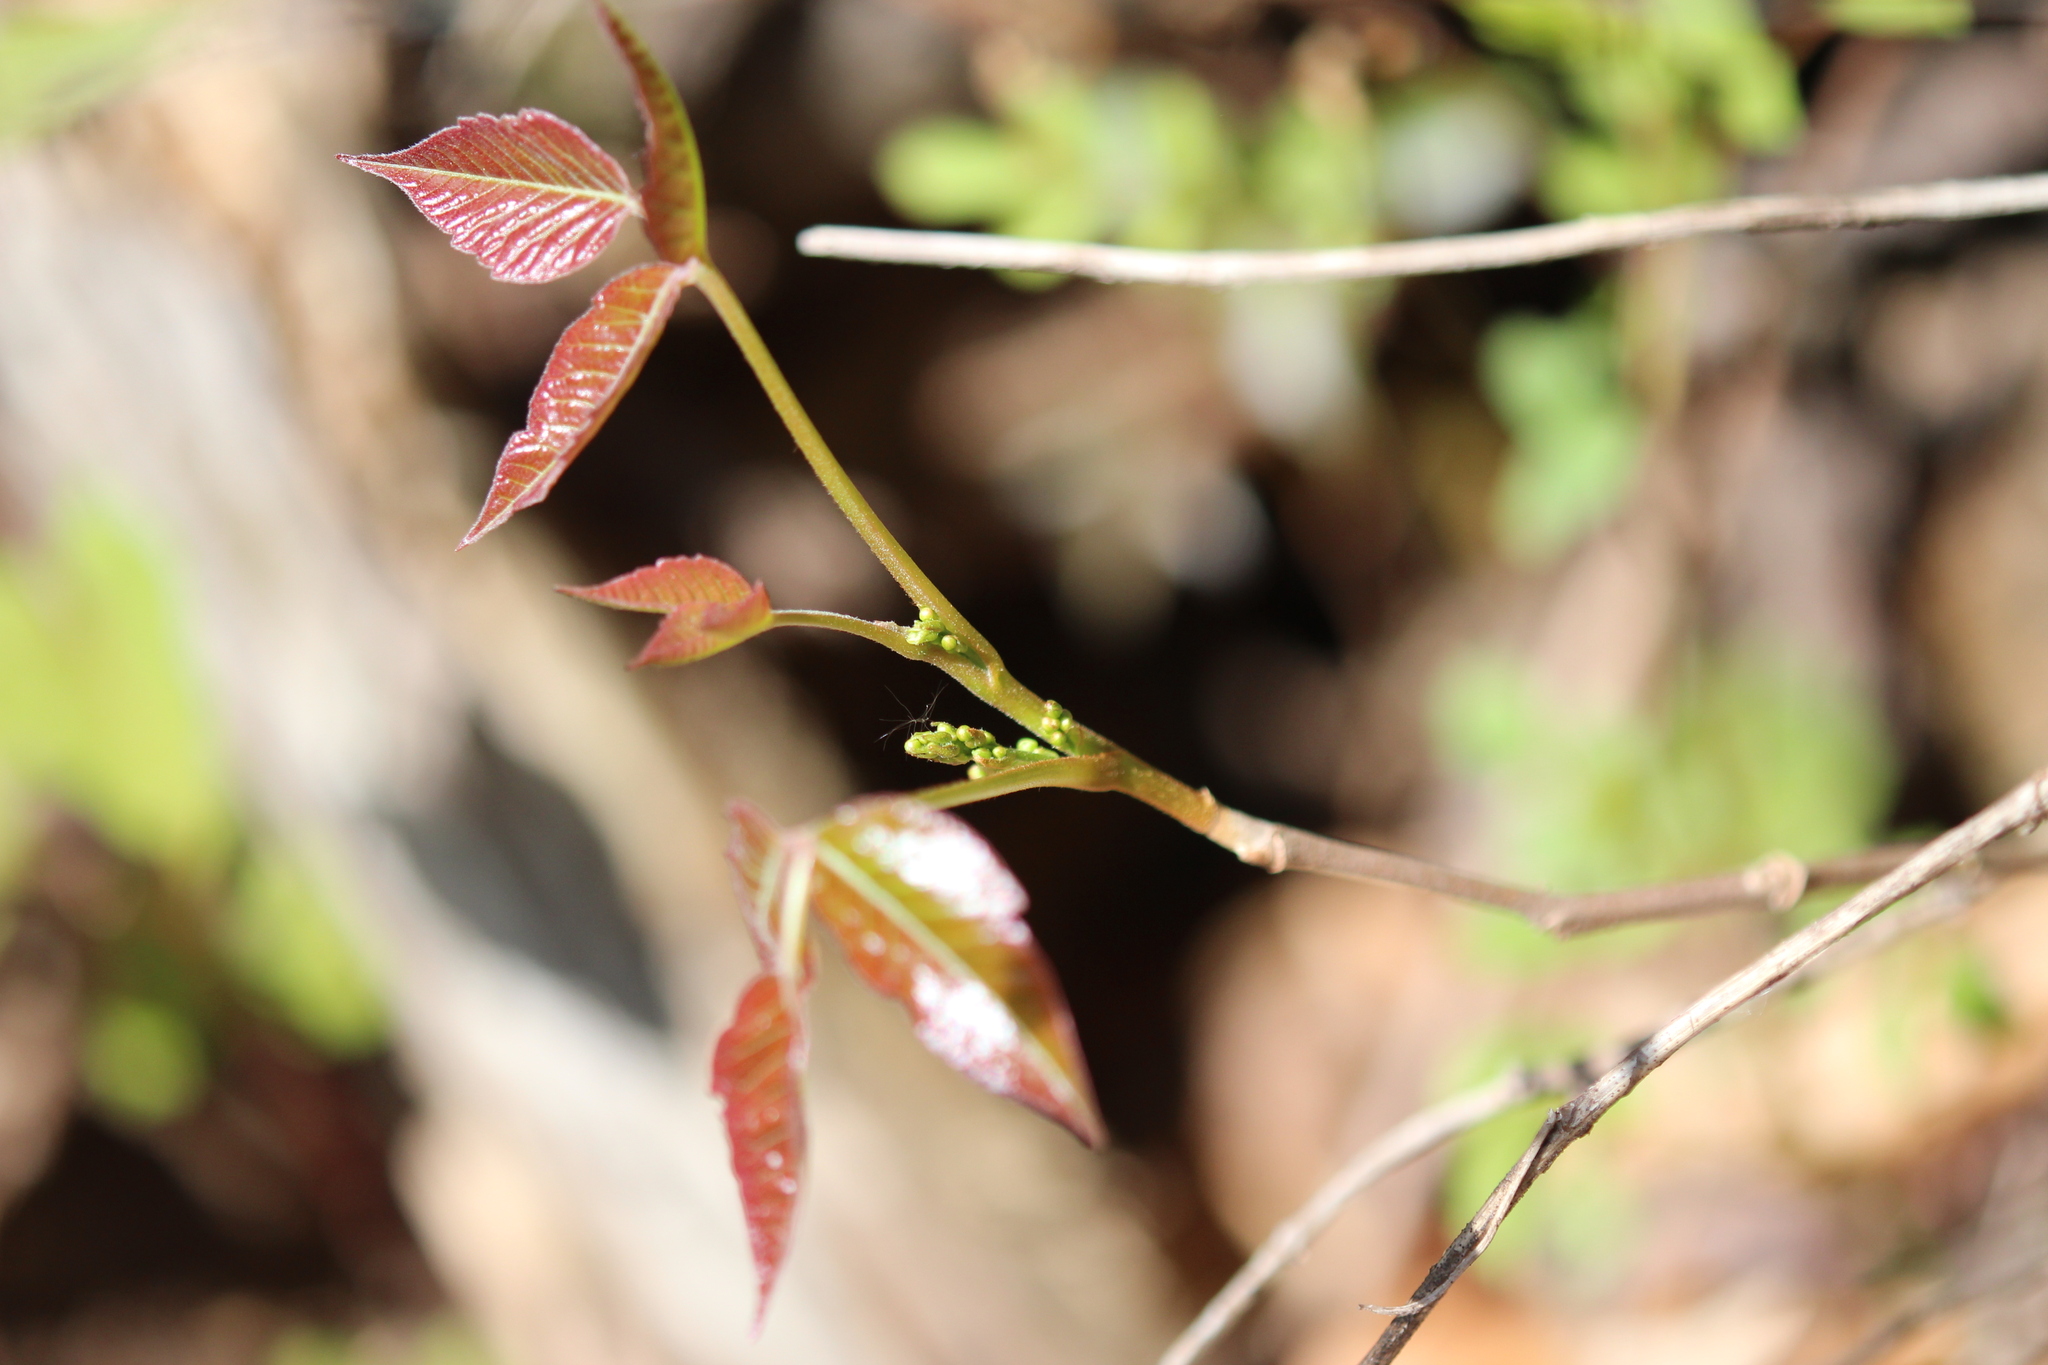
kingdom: Plantae
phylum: Tracheophyta
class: Magnoliopsida
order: Sapindales
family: Anacardiaceae
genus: Toxicodendron
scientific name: Toxicodendron radicans
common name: Poison ivy
